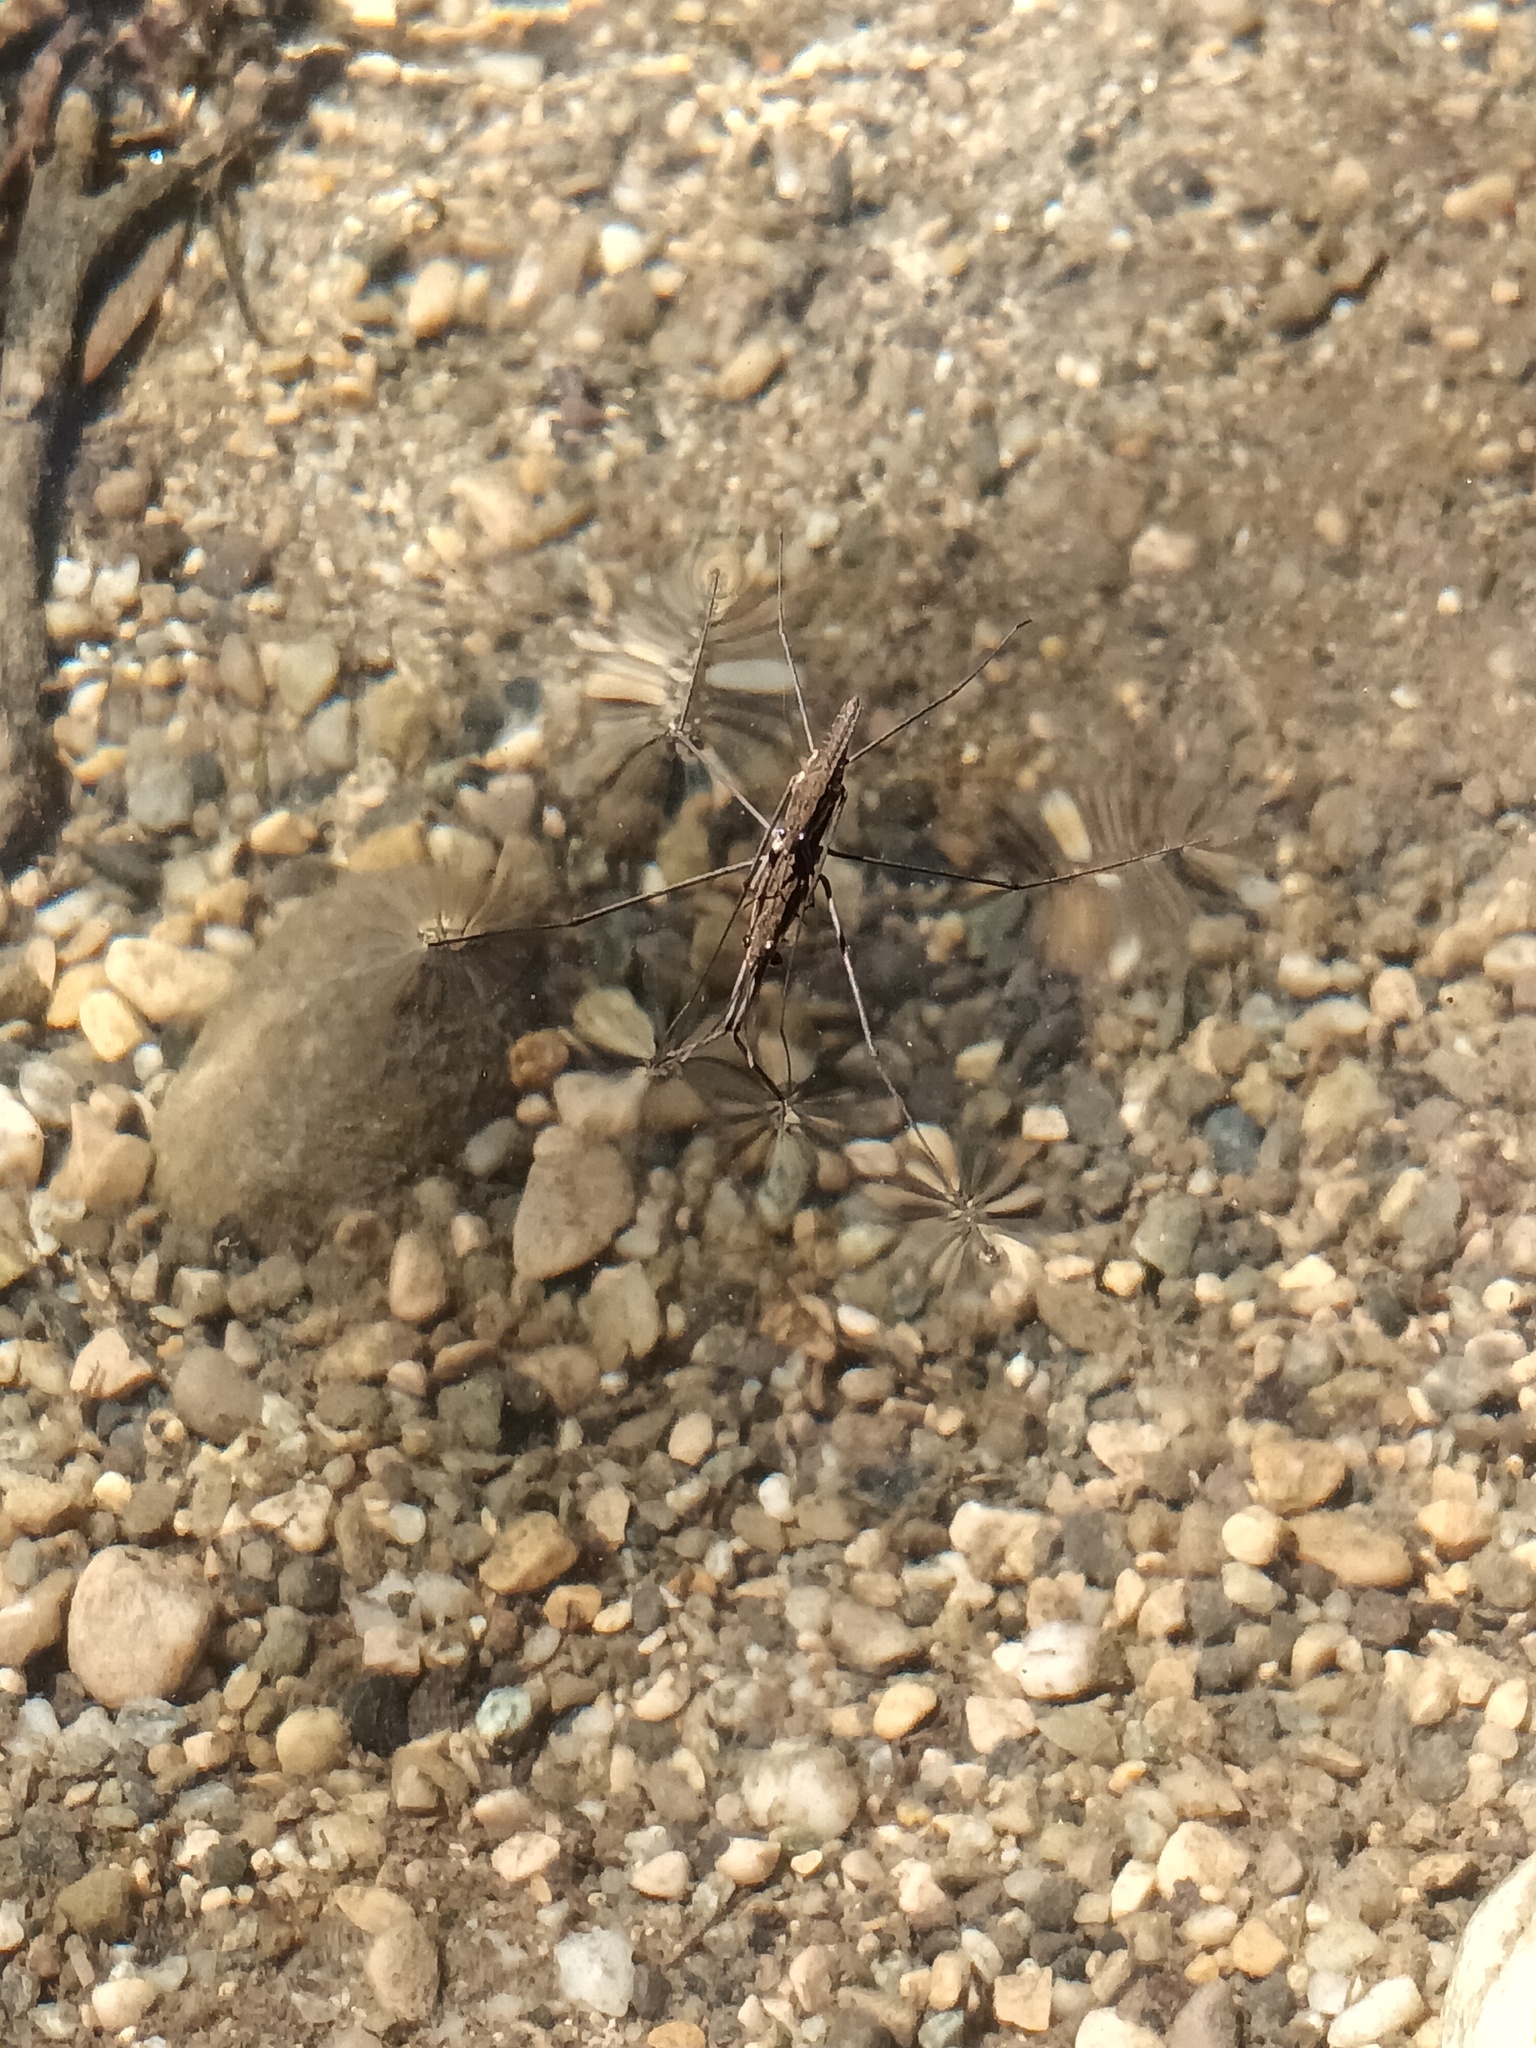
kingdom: Animalia
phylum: Arthropoda
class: Insecta
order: Hemiptera
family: Gerridae
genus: Aquarius
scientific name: Aquarius najas
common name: River skater
